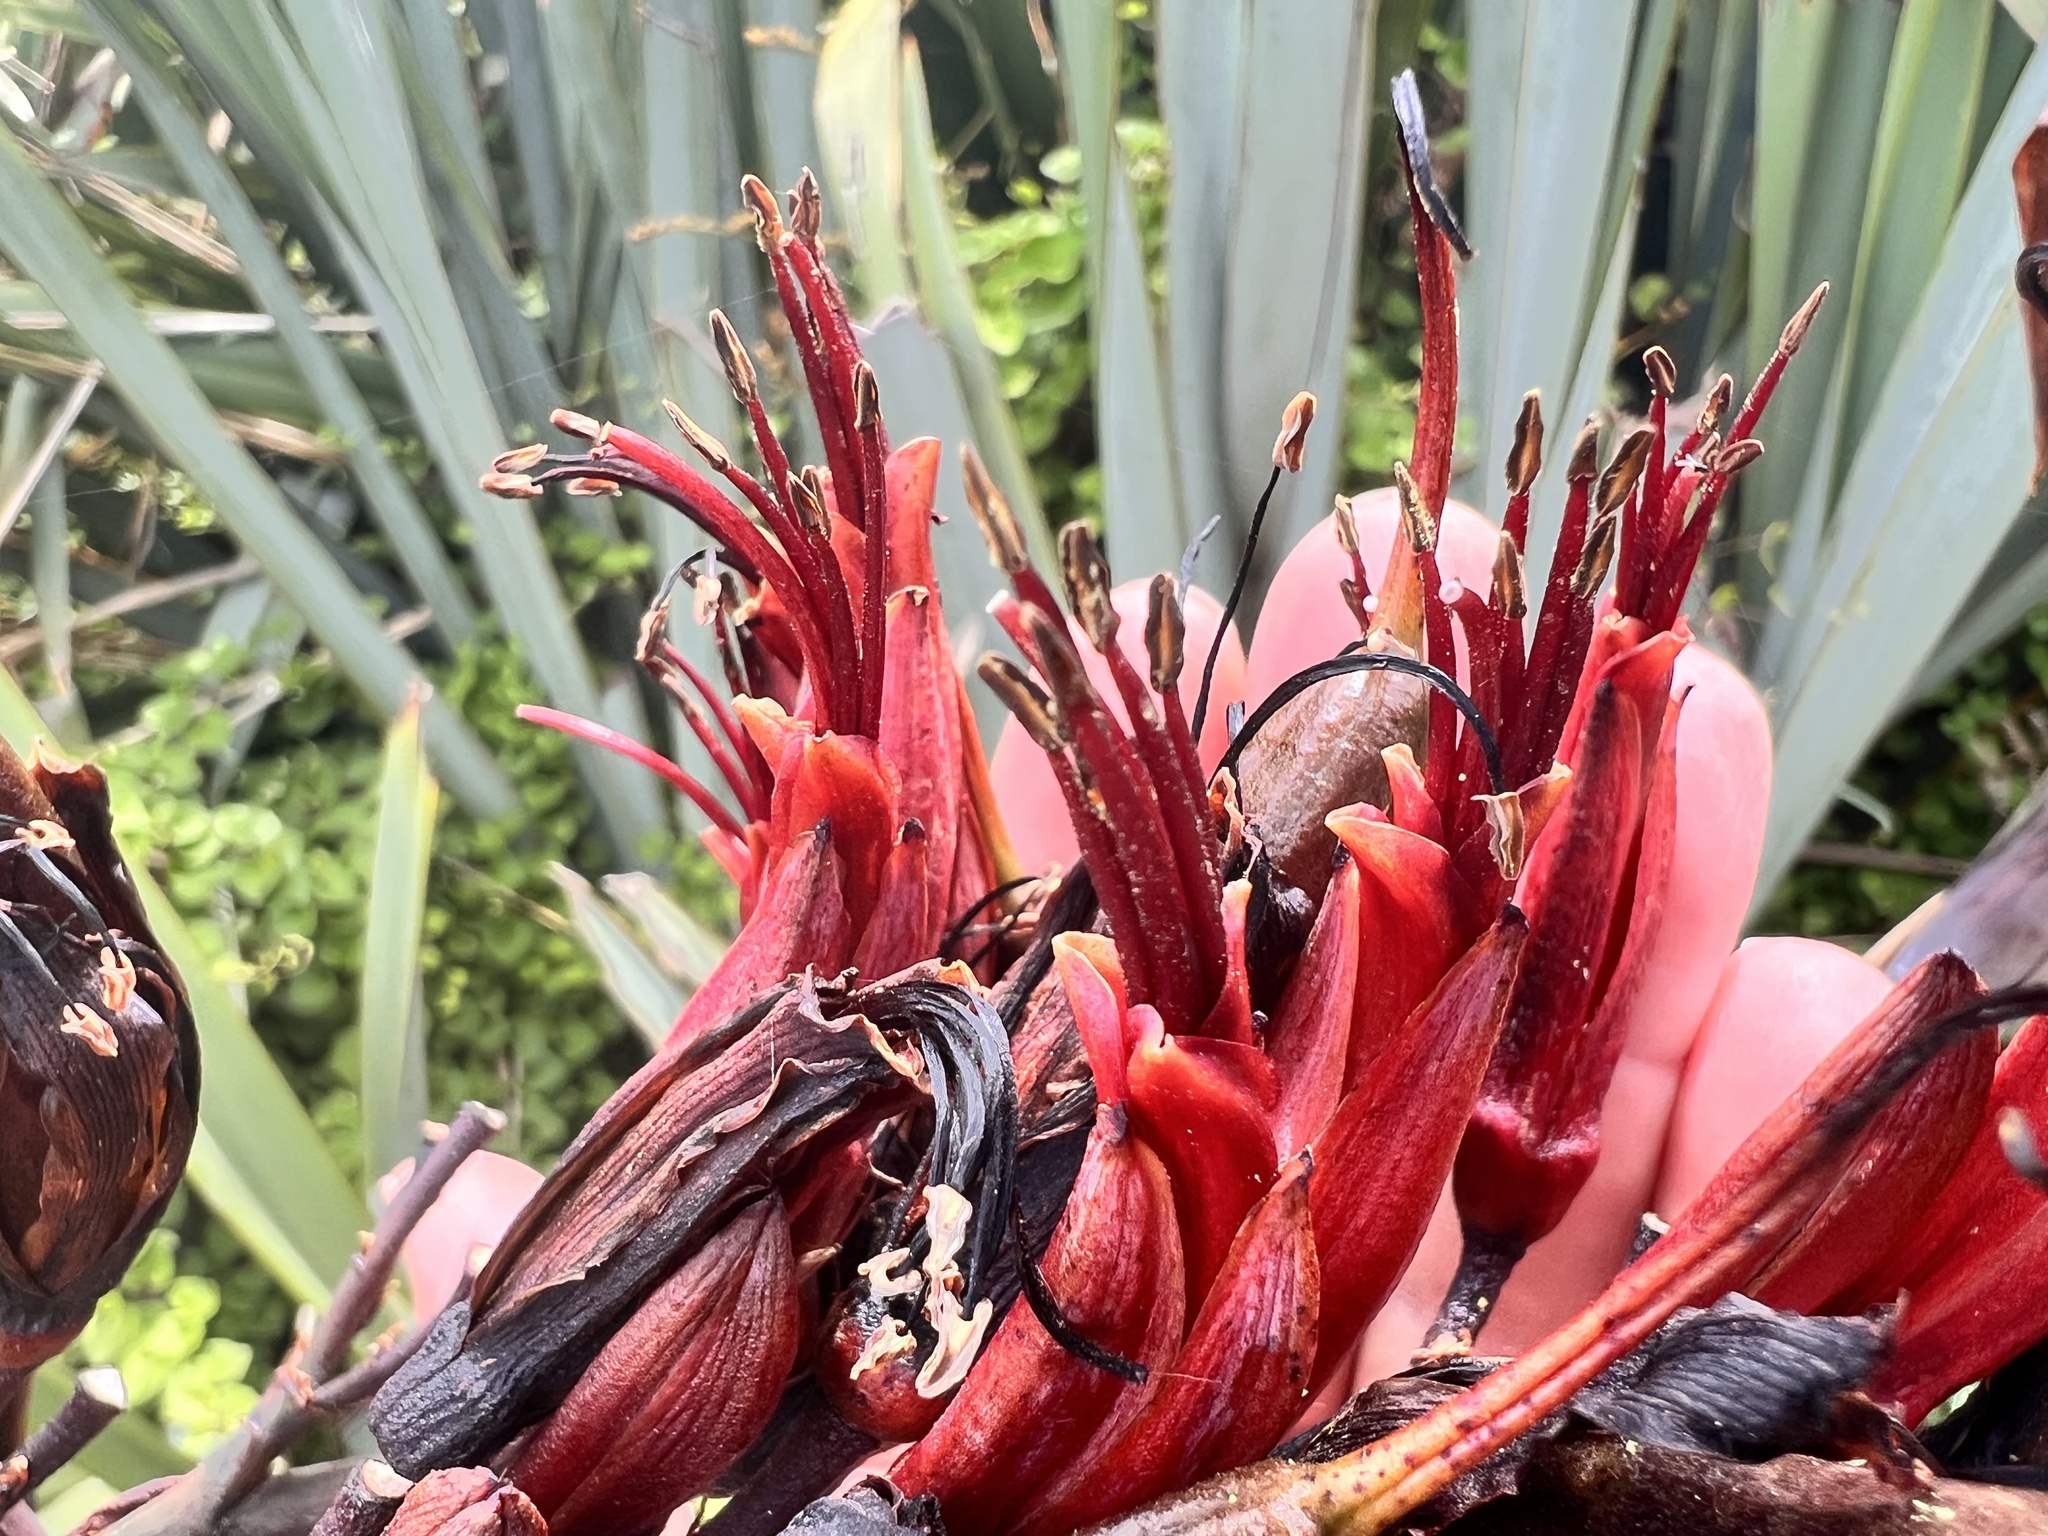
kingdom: Plantae
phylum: Tracheophyta
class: Liliopsida
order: Asparagales
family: Asphodelaceae
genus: Phormium
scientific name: Phormium tenax
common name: New zealand flax
